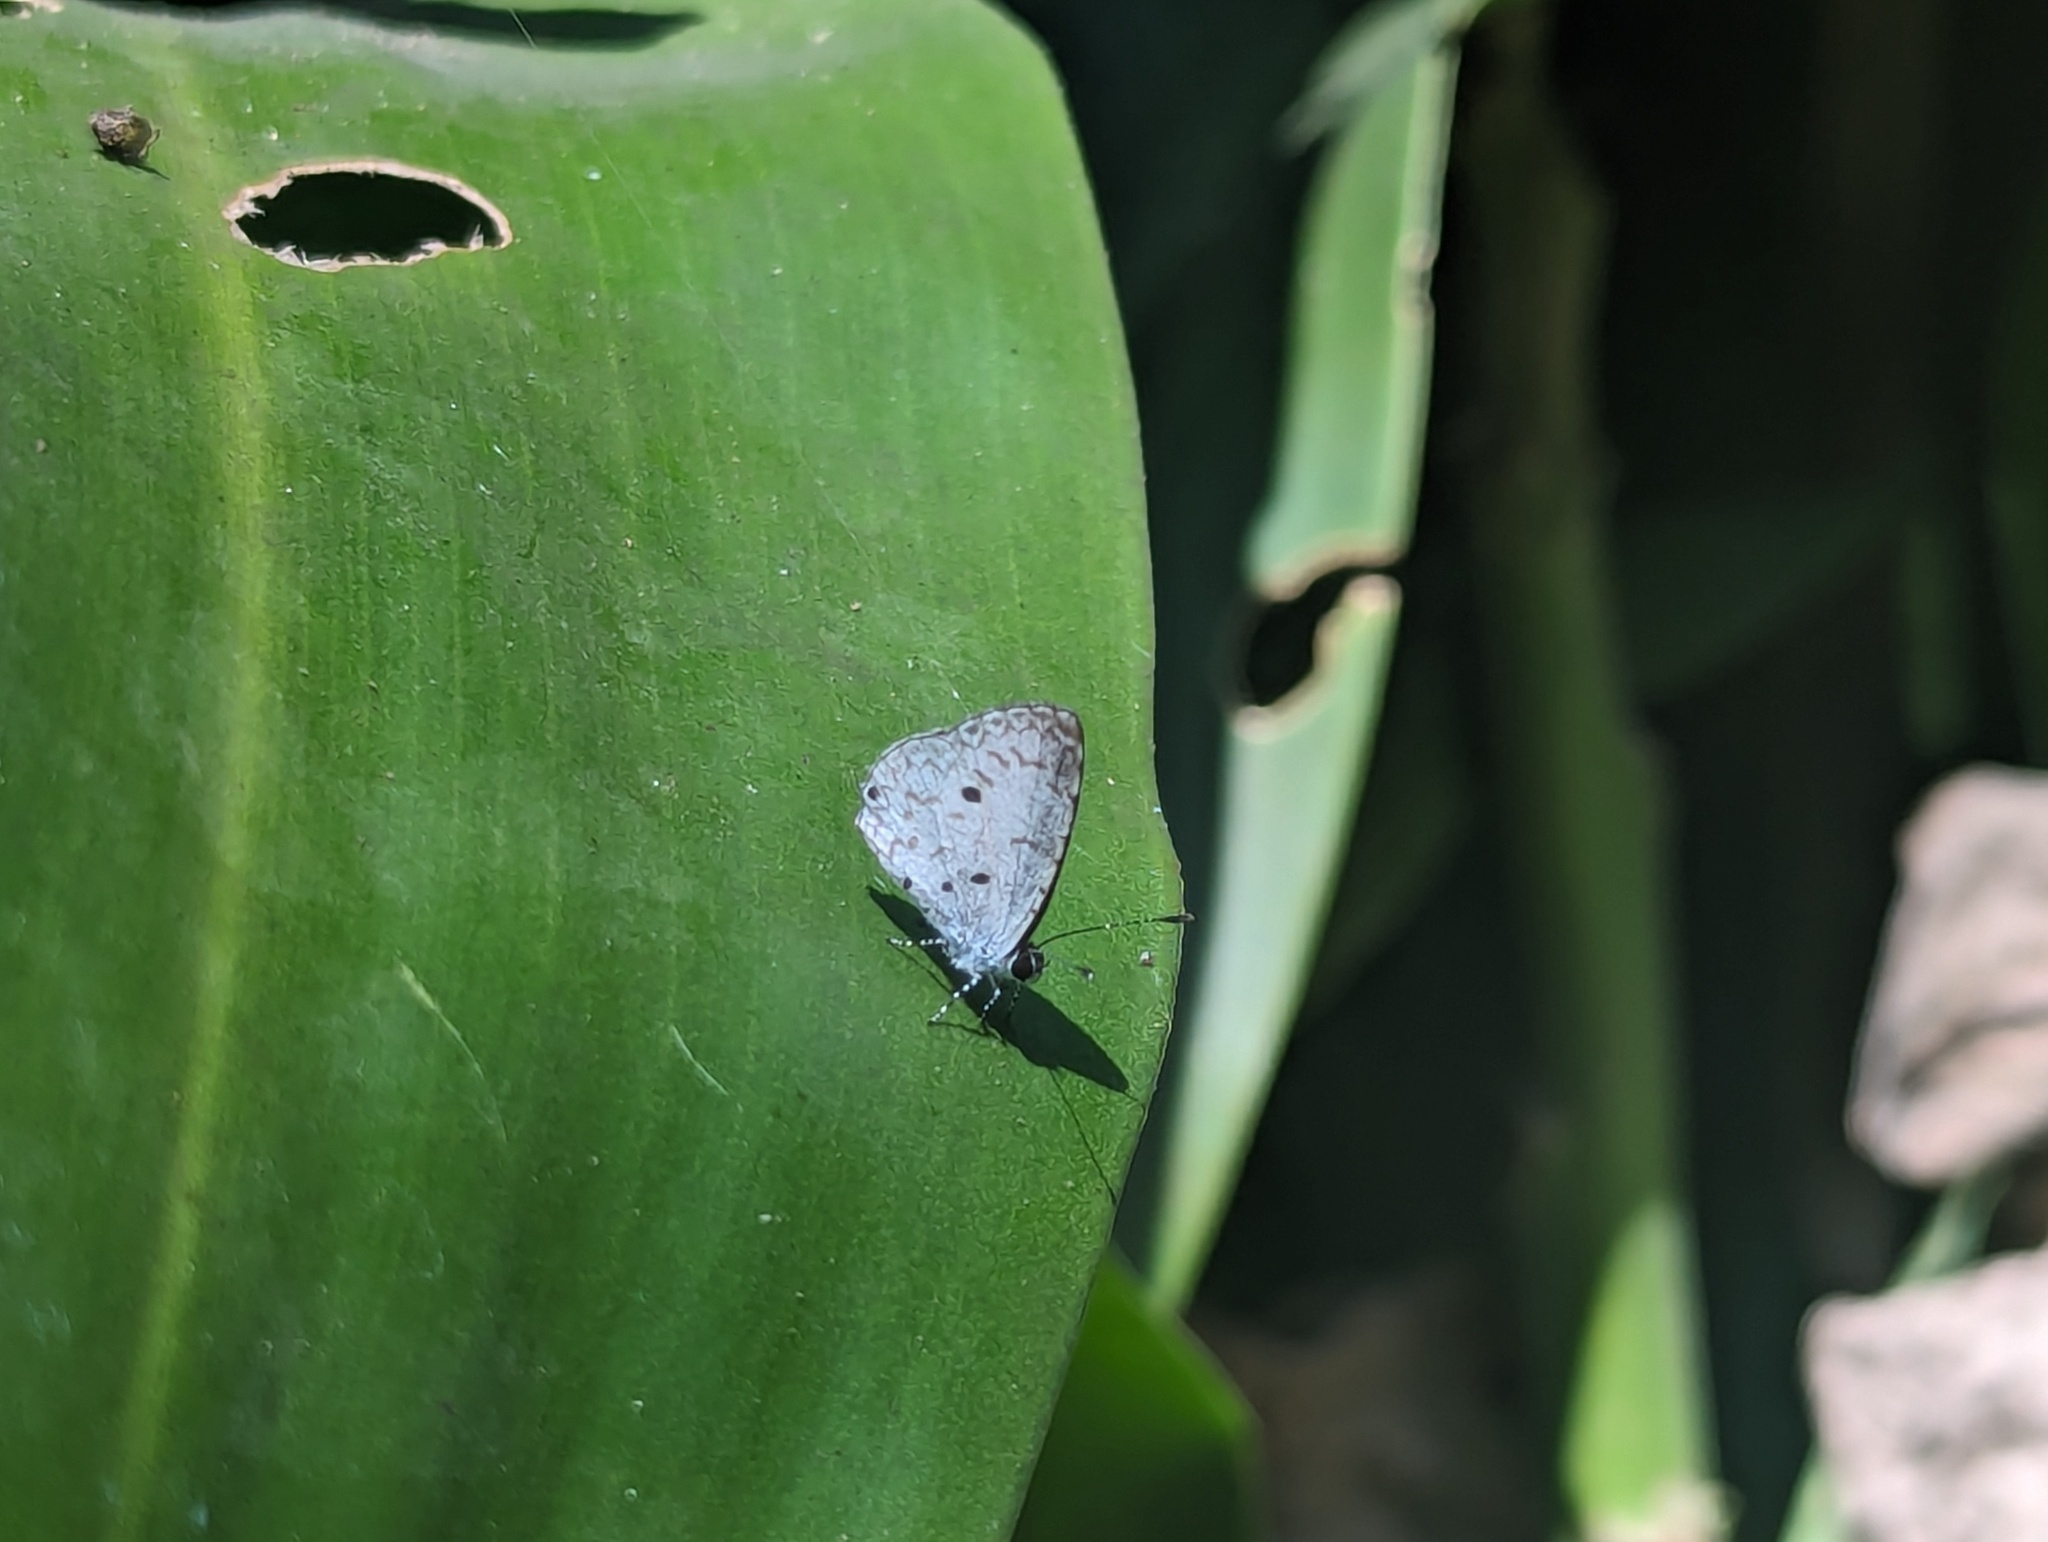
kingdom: Animalia
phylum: Arthropoda
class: Insecta
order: Lepidoptera
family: Lycaenidae
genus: Megisba
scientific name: Megisba malaya
